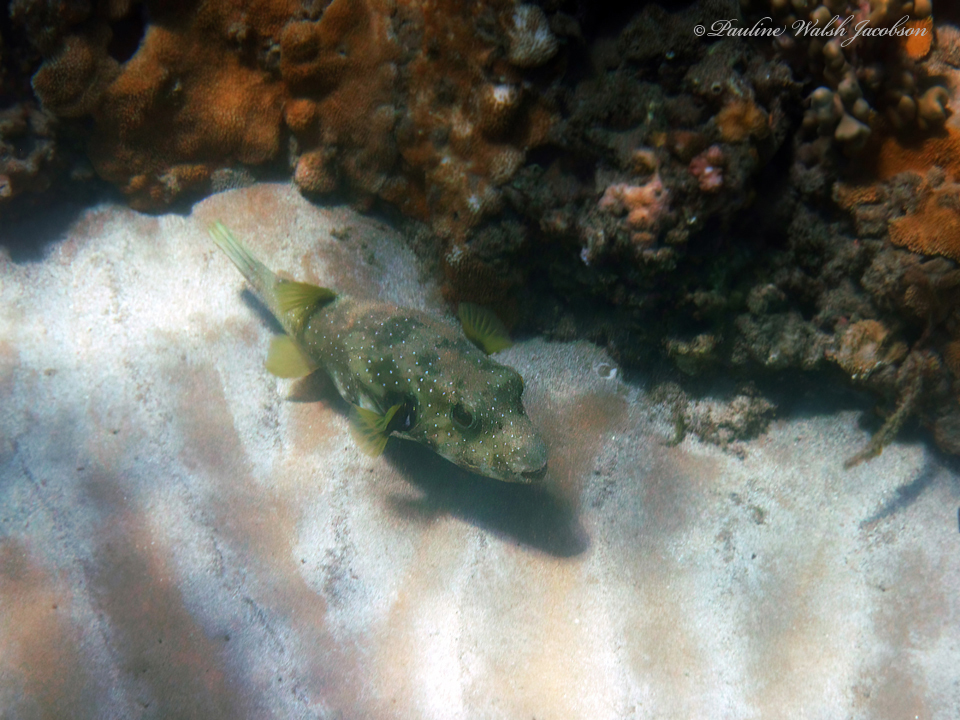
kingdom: Animalia
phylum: Chordata
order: Tetraodontiformes
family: Tetraodontidae
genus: Arothron
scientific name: Arothron hispidus
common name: Stripebelly puffer
